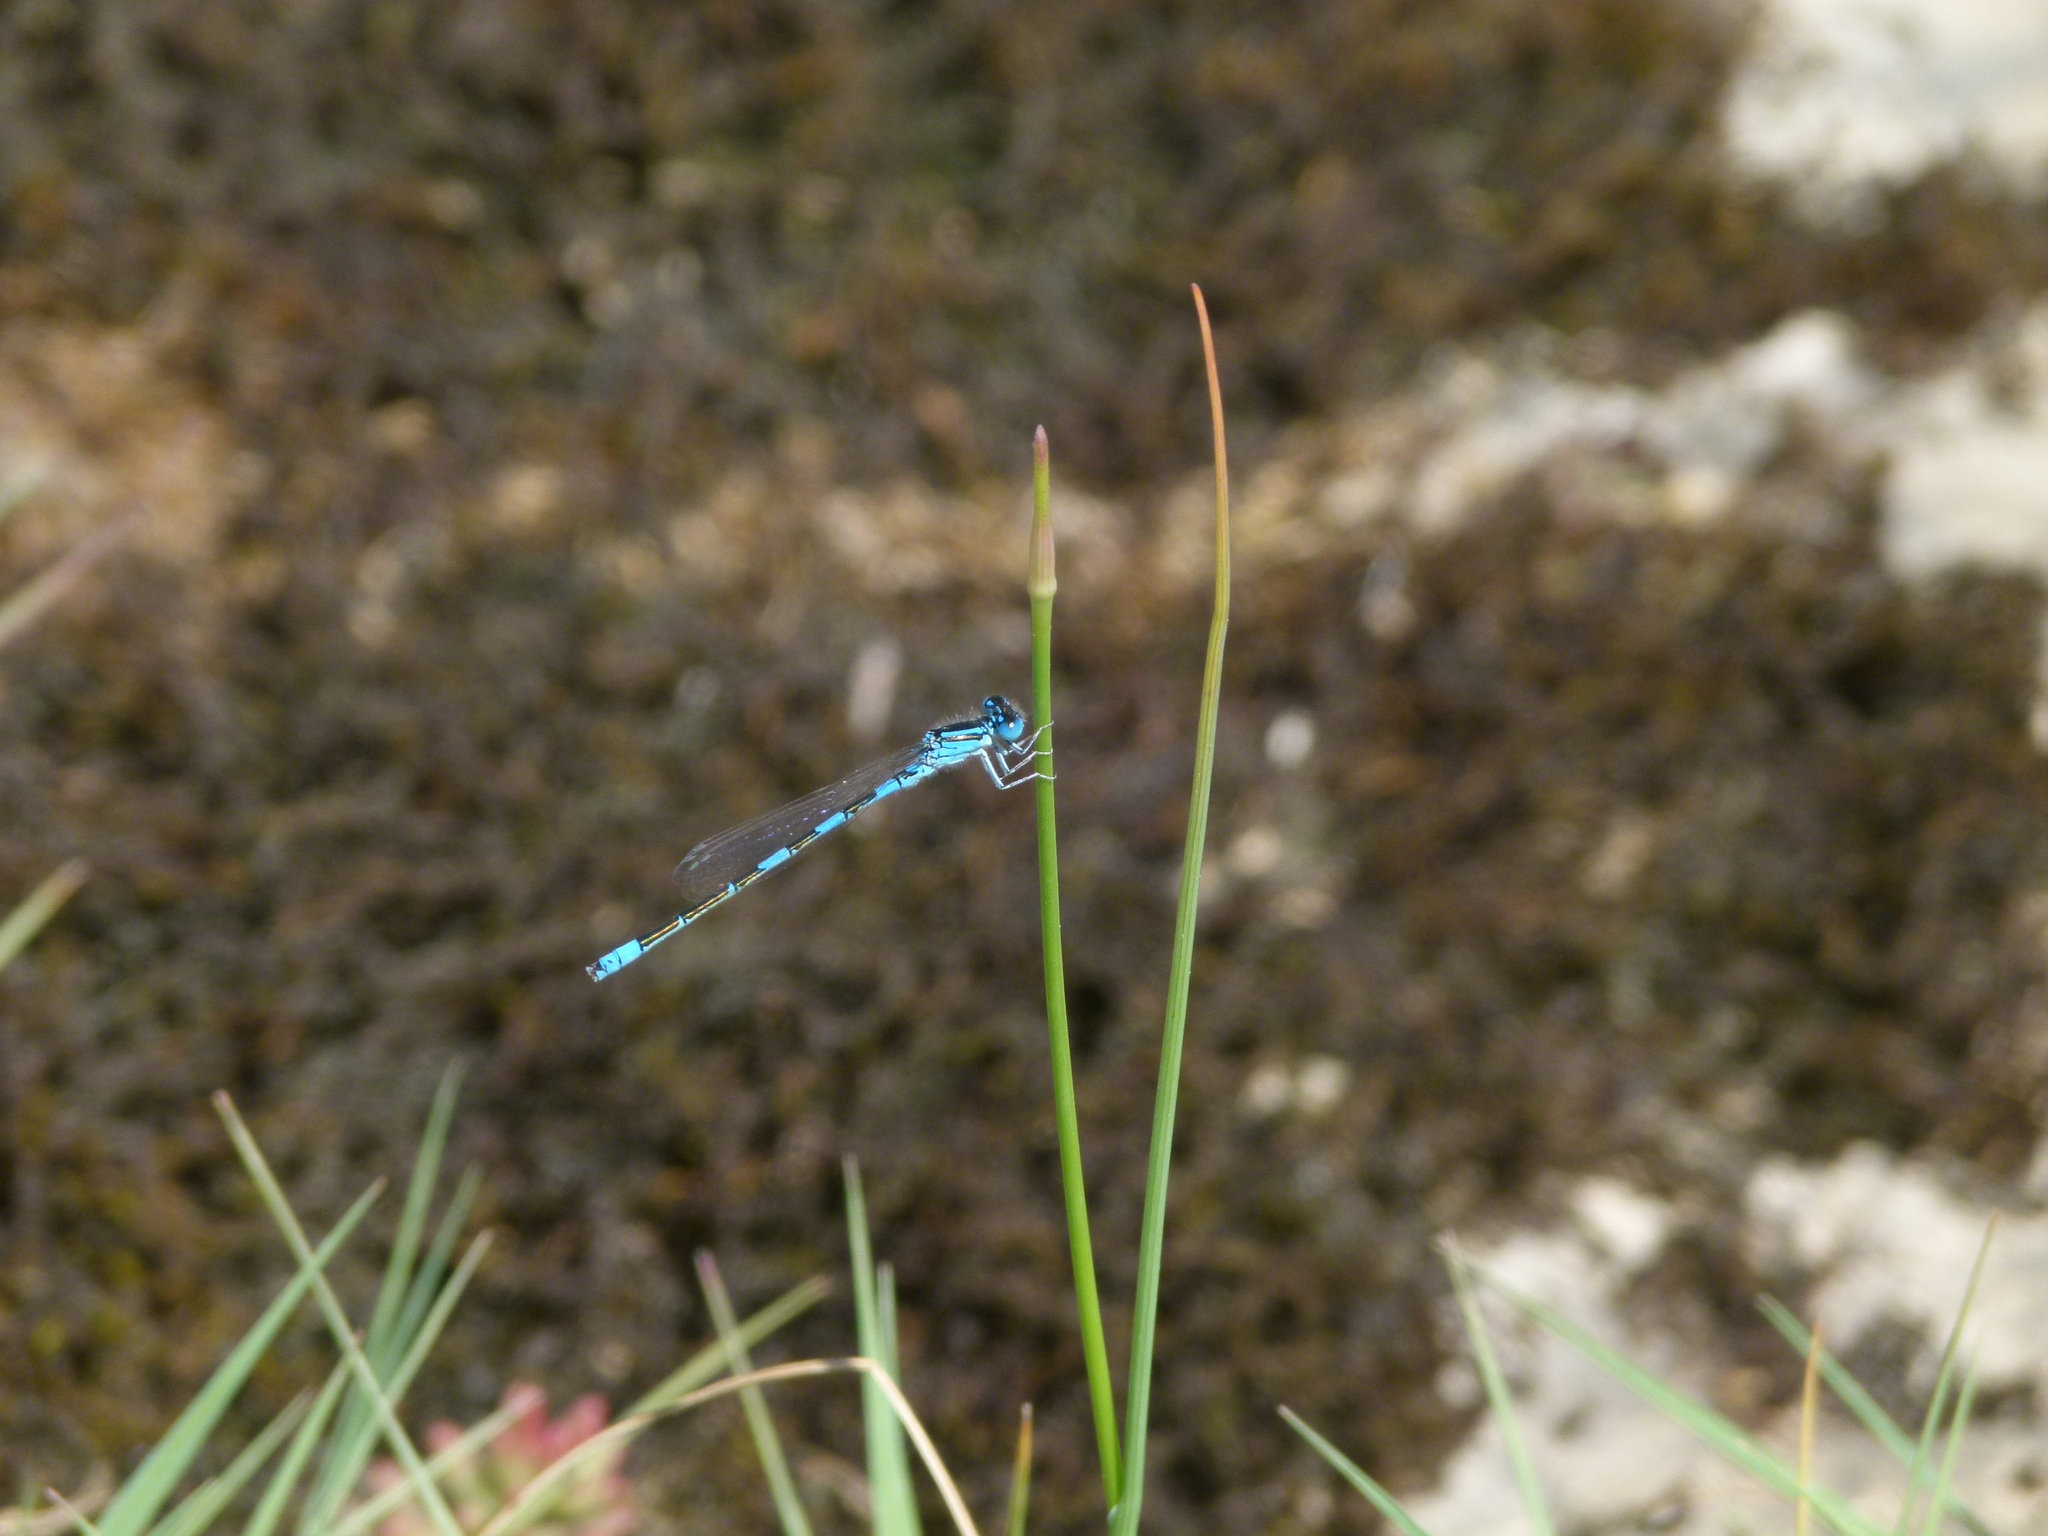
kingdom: Animalia
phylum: Arthropoda
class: Insecta
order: Odonata
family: Coenagrionidae
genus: Coenagrion
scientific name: Coenagrion caerulescens
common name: Mediterranean bluet
